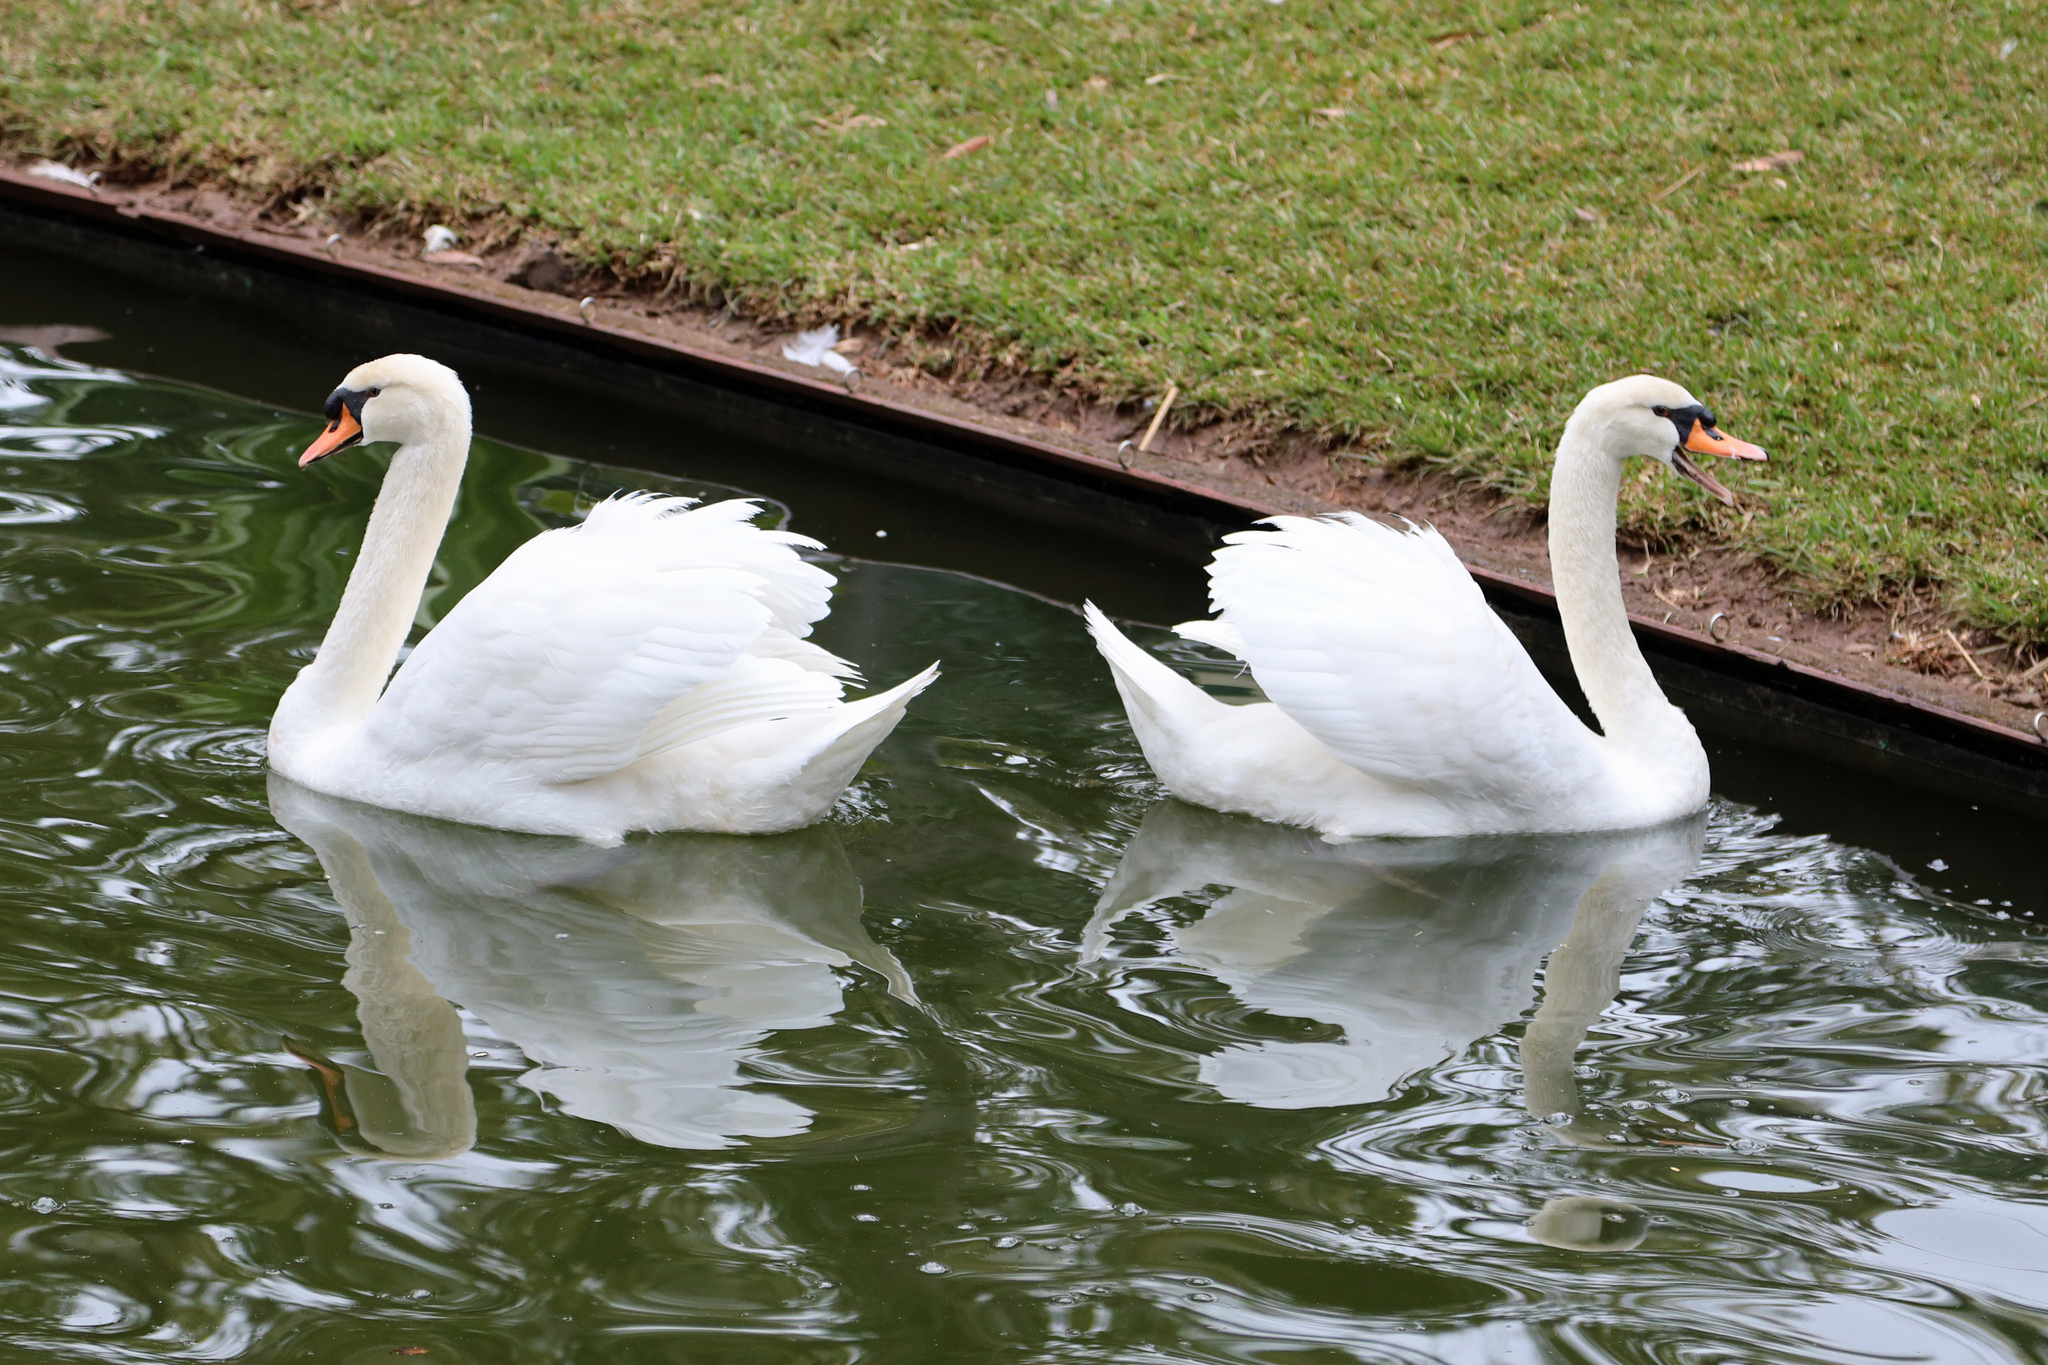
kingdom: Animalia
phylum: Chordata
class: Aves
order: Anseriformes
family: Anatidae
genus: Cygnus
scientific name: Cygnus olor
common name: Mute swan
